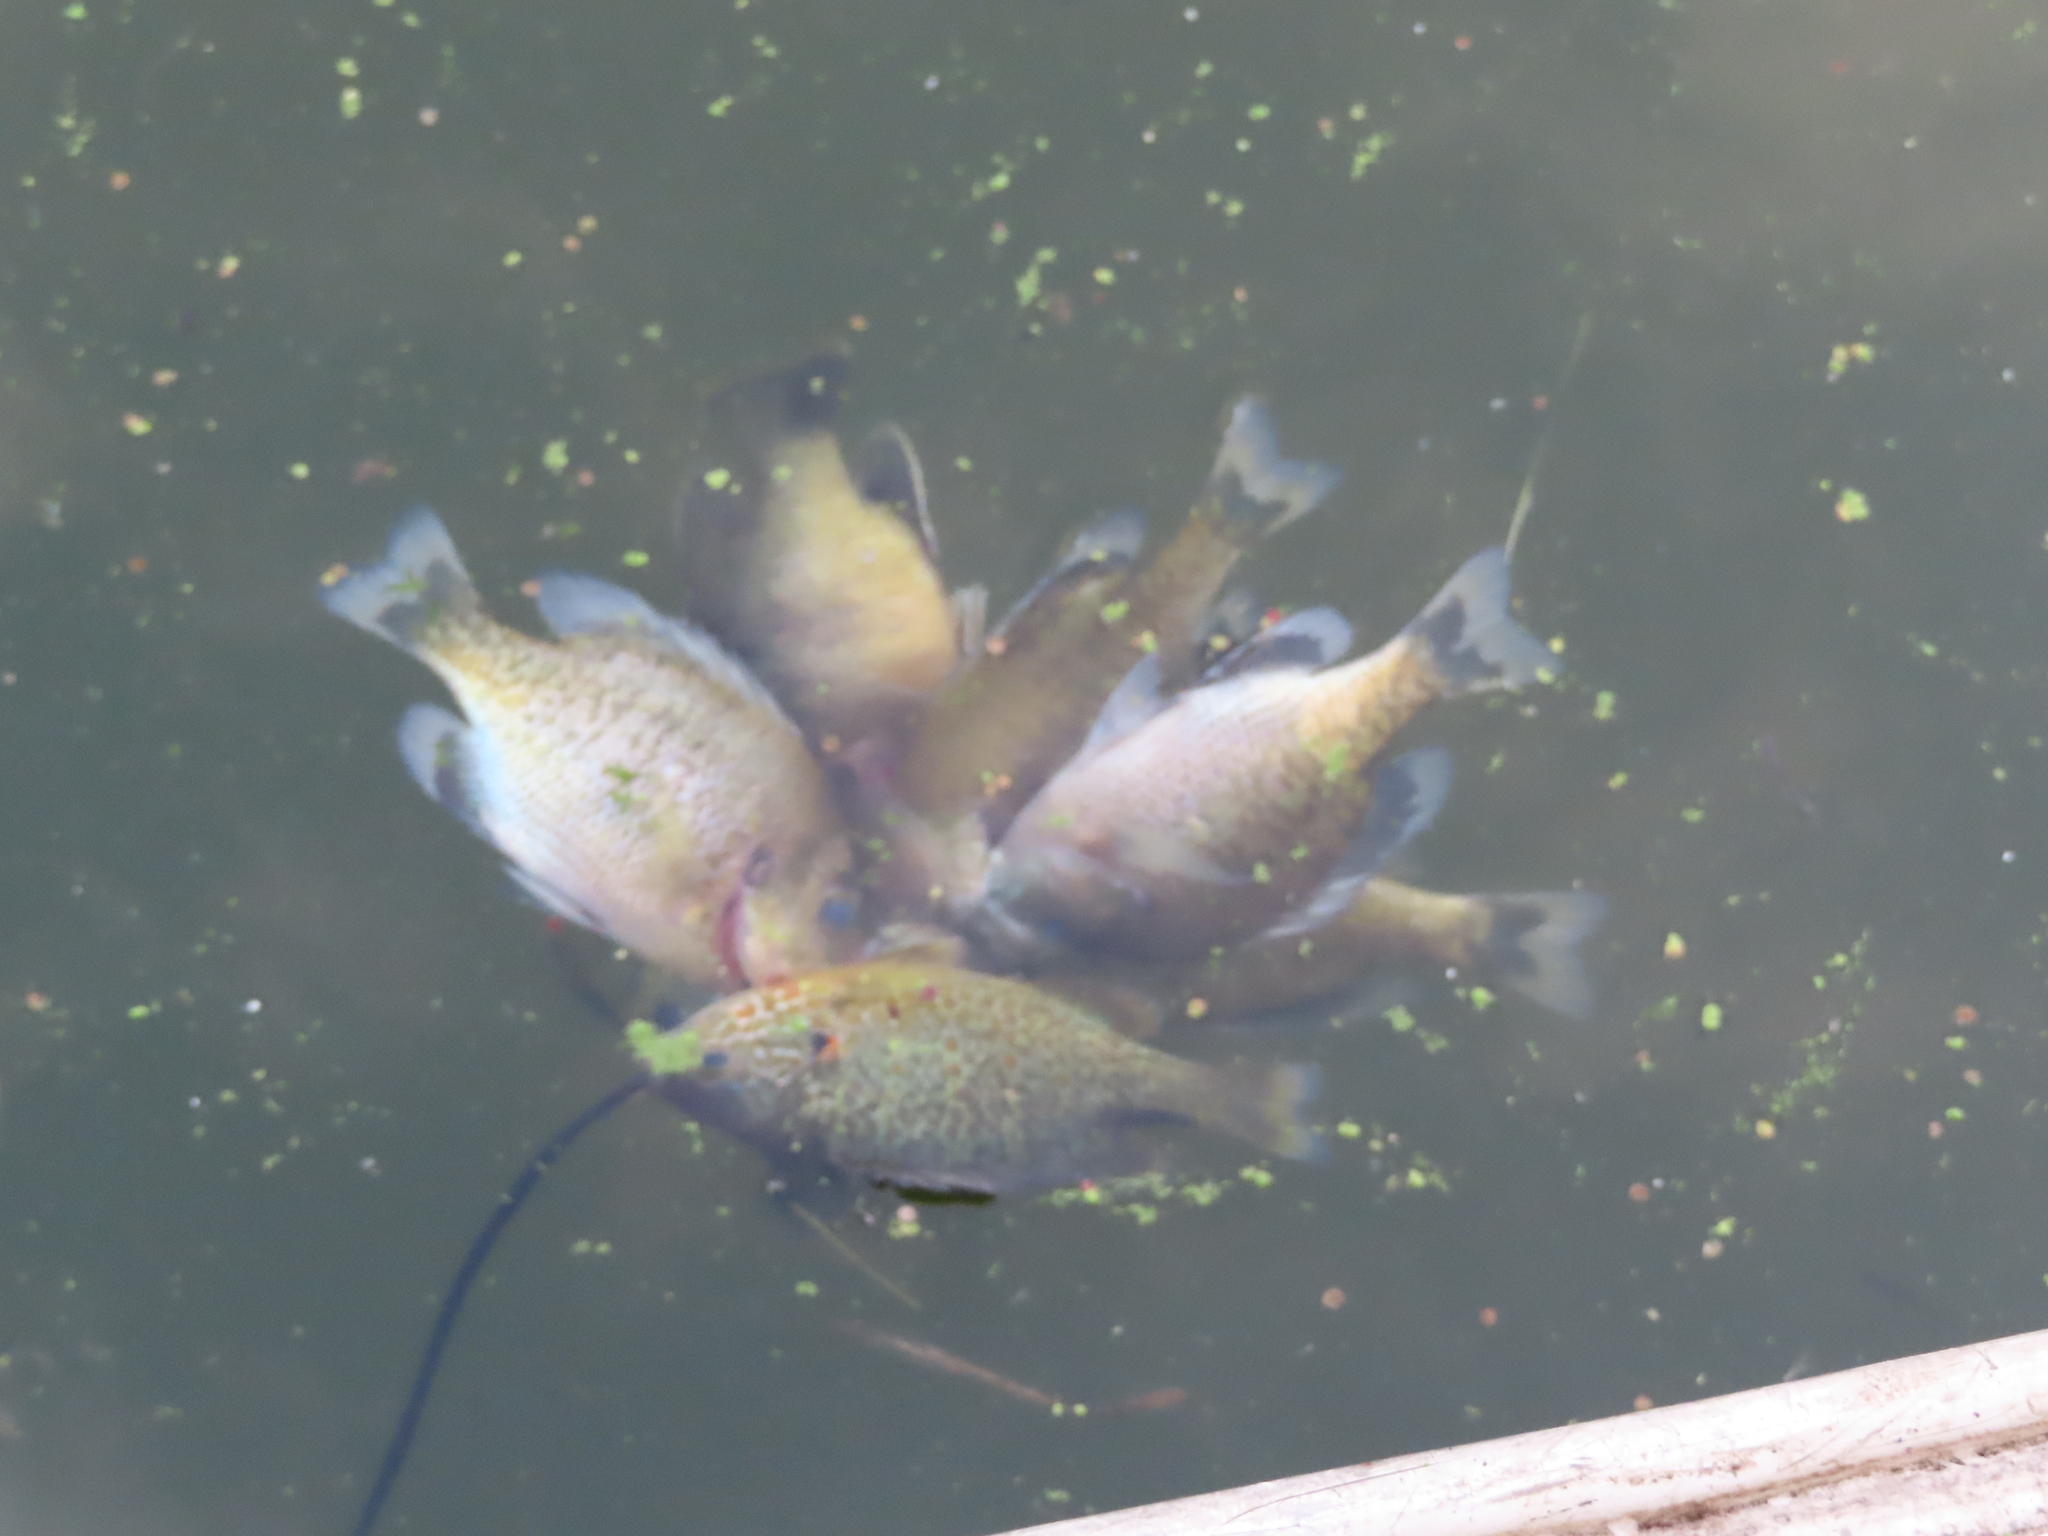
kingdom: Animalia
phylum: Chordata
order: Perciformes
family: Centrarchidae
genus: Lepomis
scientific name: Lepomis gibbosus
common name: Pumpkinseed
